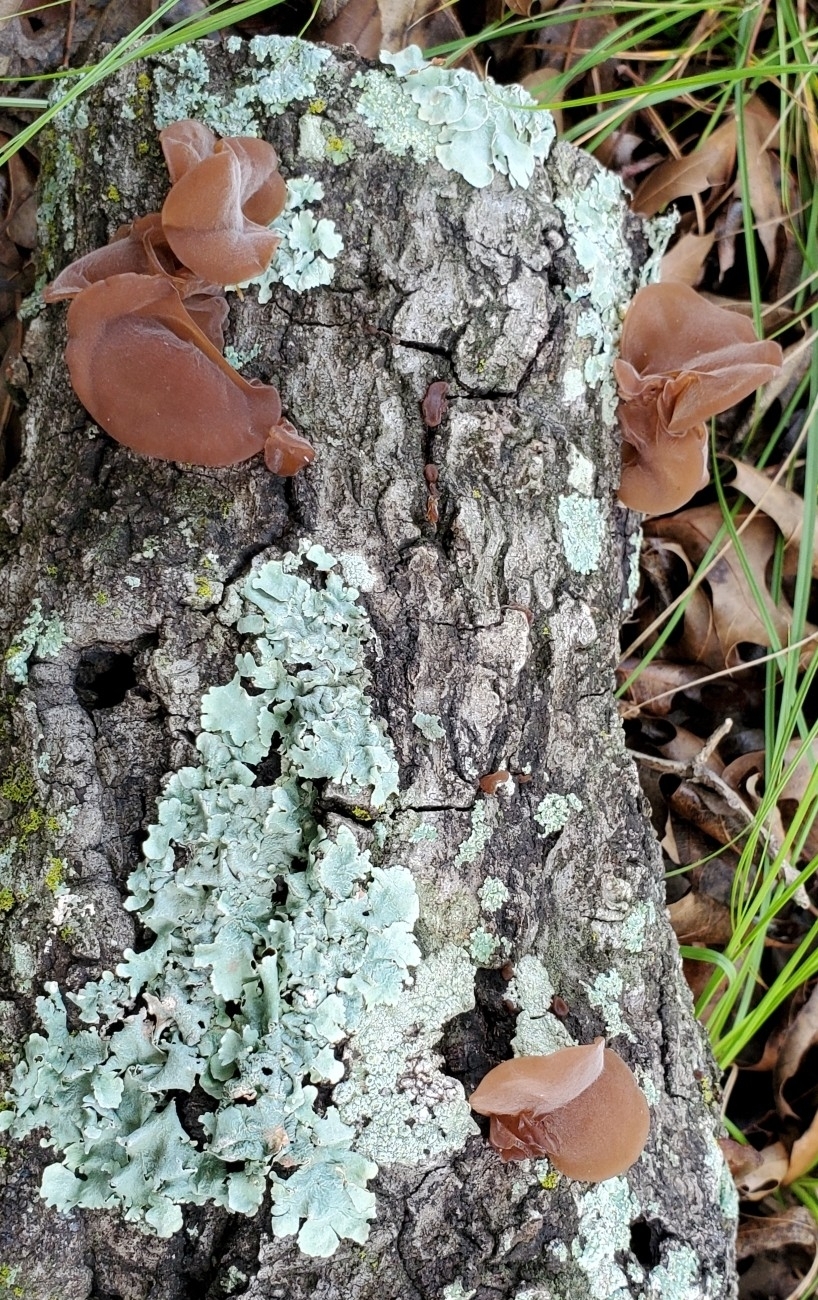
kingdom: Fungi
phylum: Basidiomycota
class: Agaricomycetes
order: Auriculariales
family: Auriculariaceae
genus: Auricularia
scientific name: Auricularia americana
